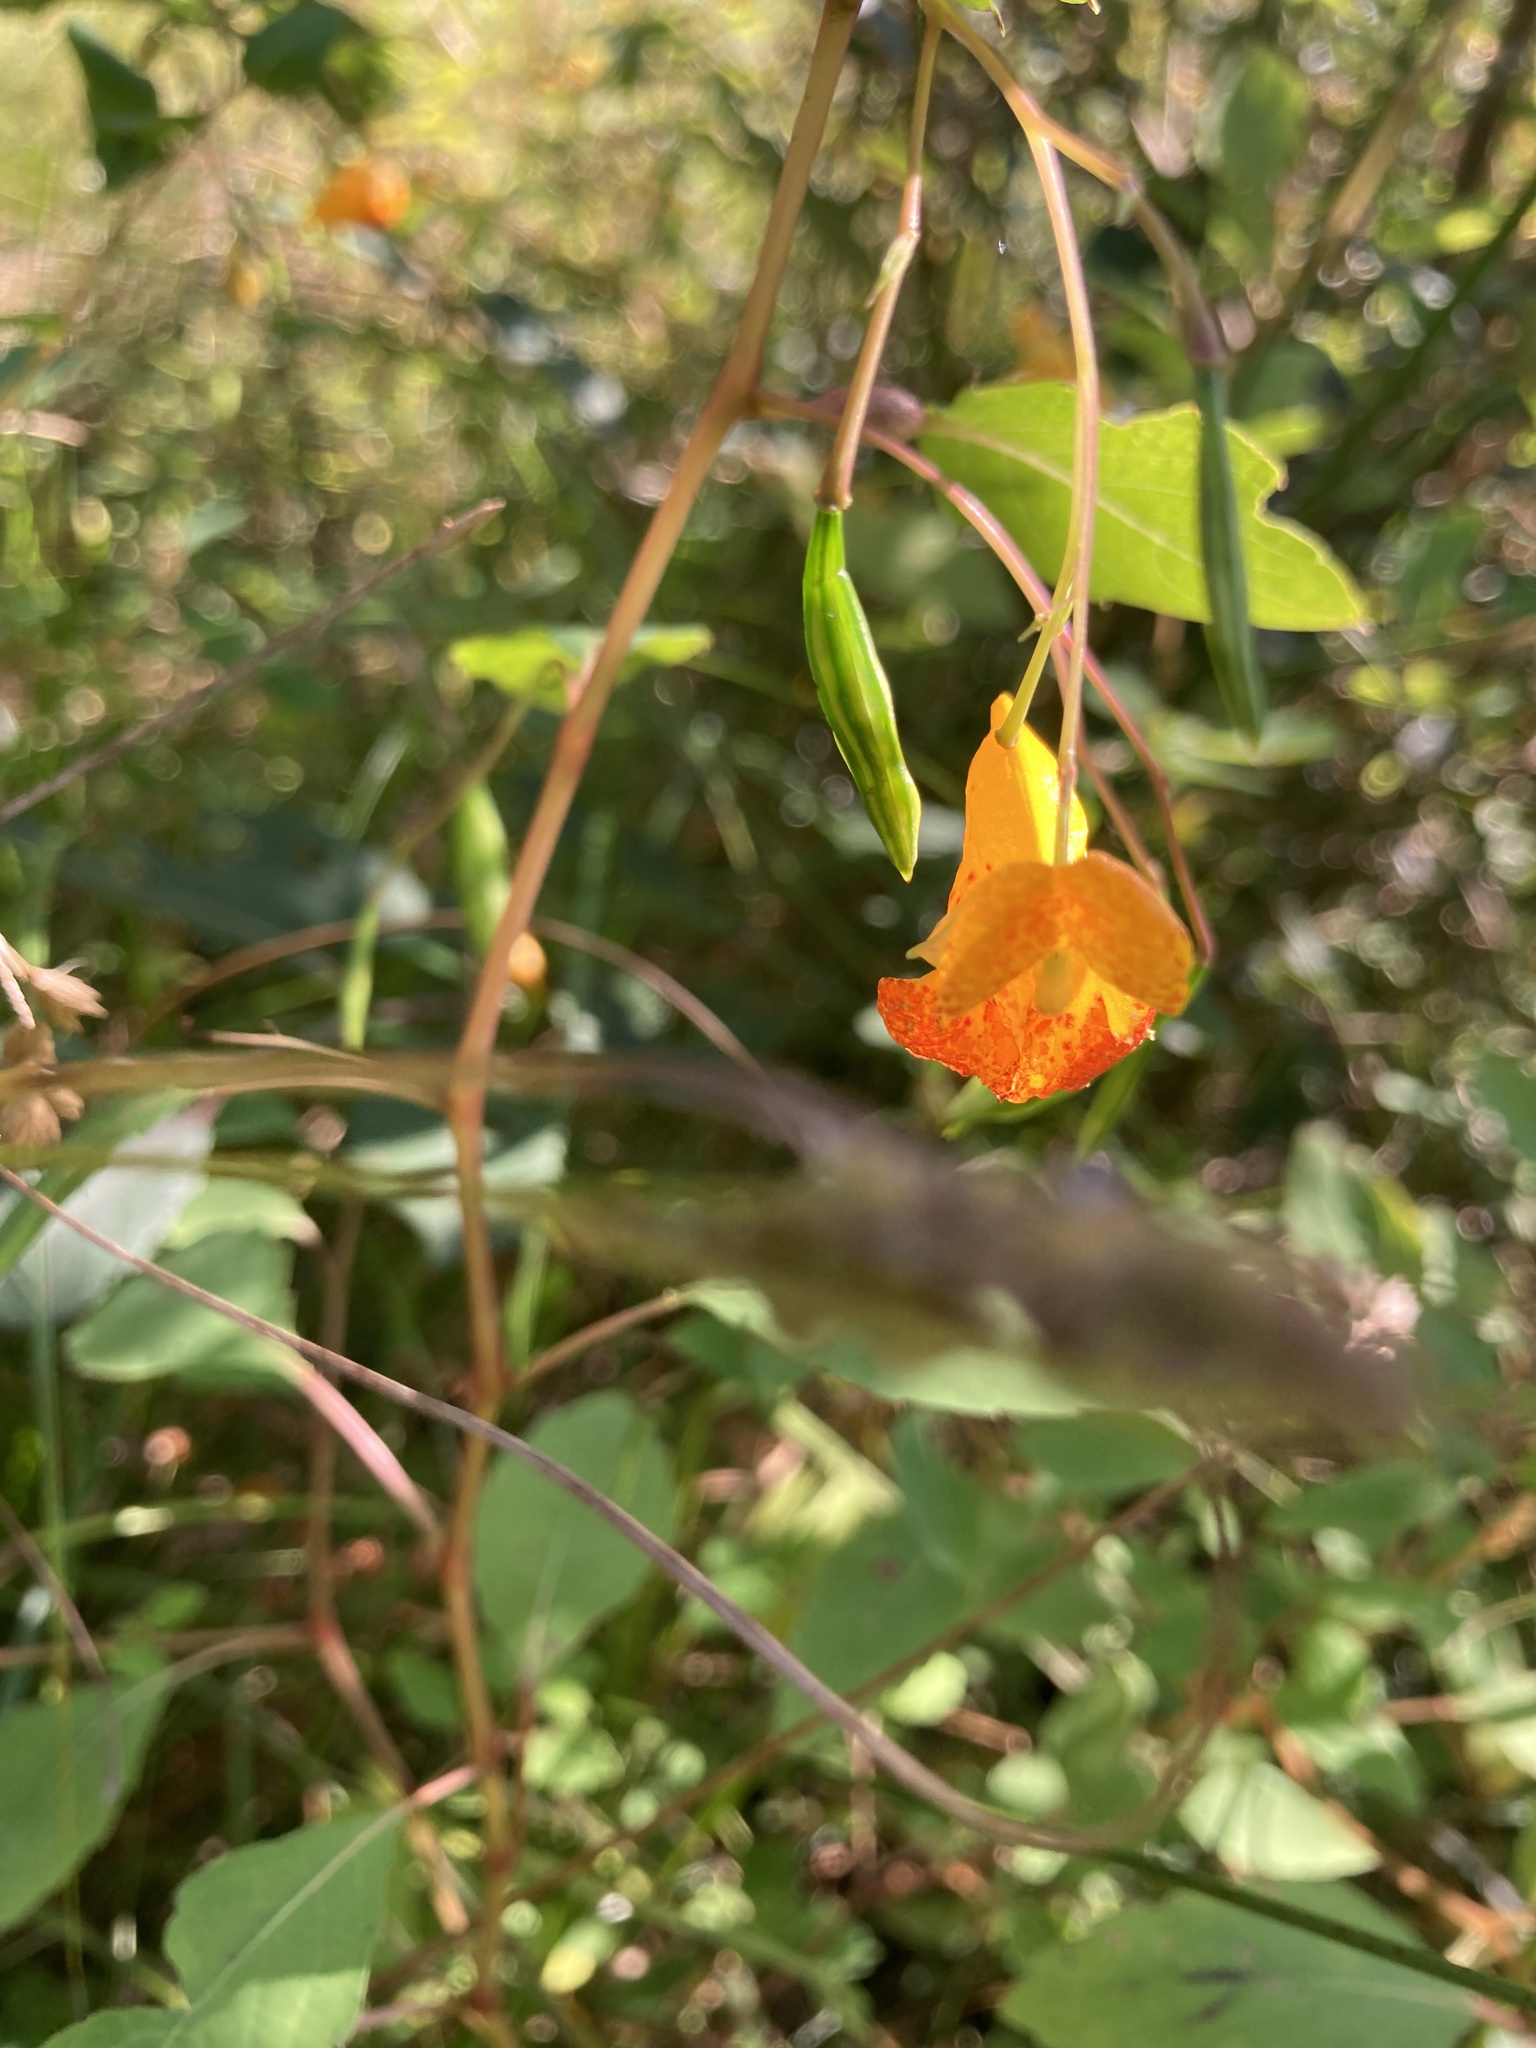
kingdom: Plantae
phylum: Tracheophyta
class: Magnoliopsida
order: Ericales
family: Balsaminaceae
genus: Impatiens
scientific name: Impatiens capensis
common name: Orange balsam
